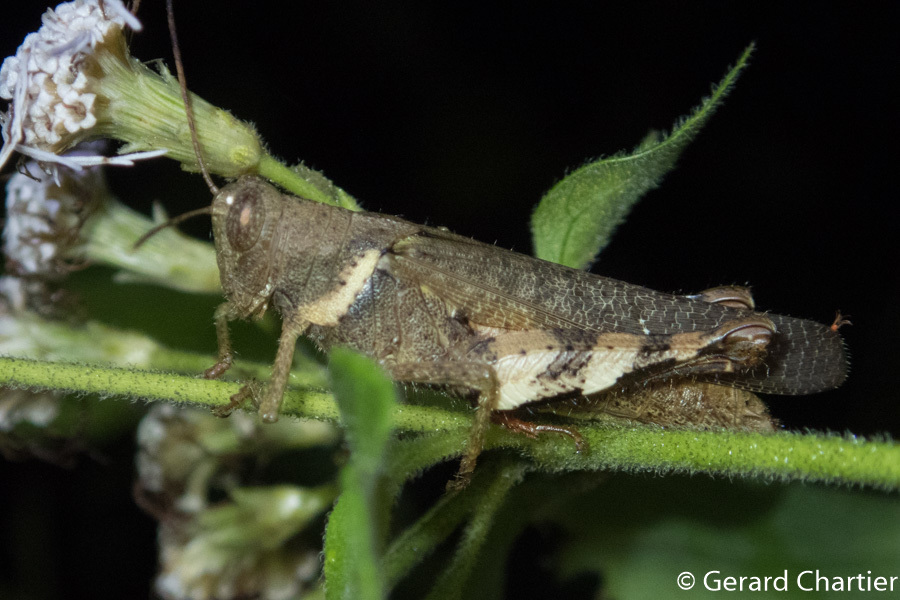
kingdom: Animalia
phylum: Arthropoda
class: Insecta
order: Orthoptera
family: Acrididae
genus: Apalacris
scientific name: Apalacris varicornis
